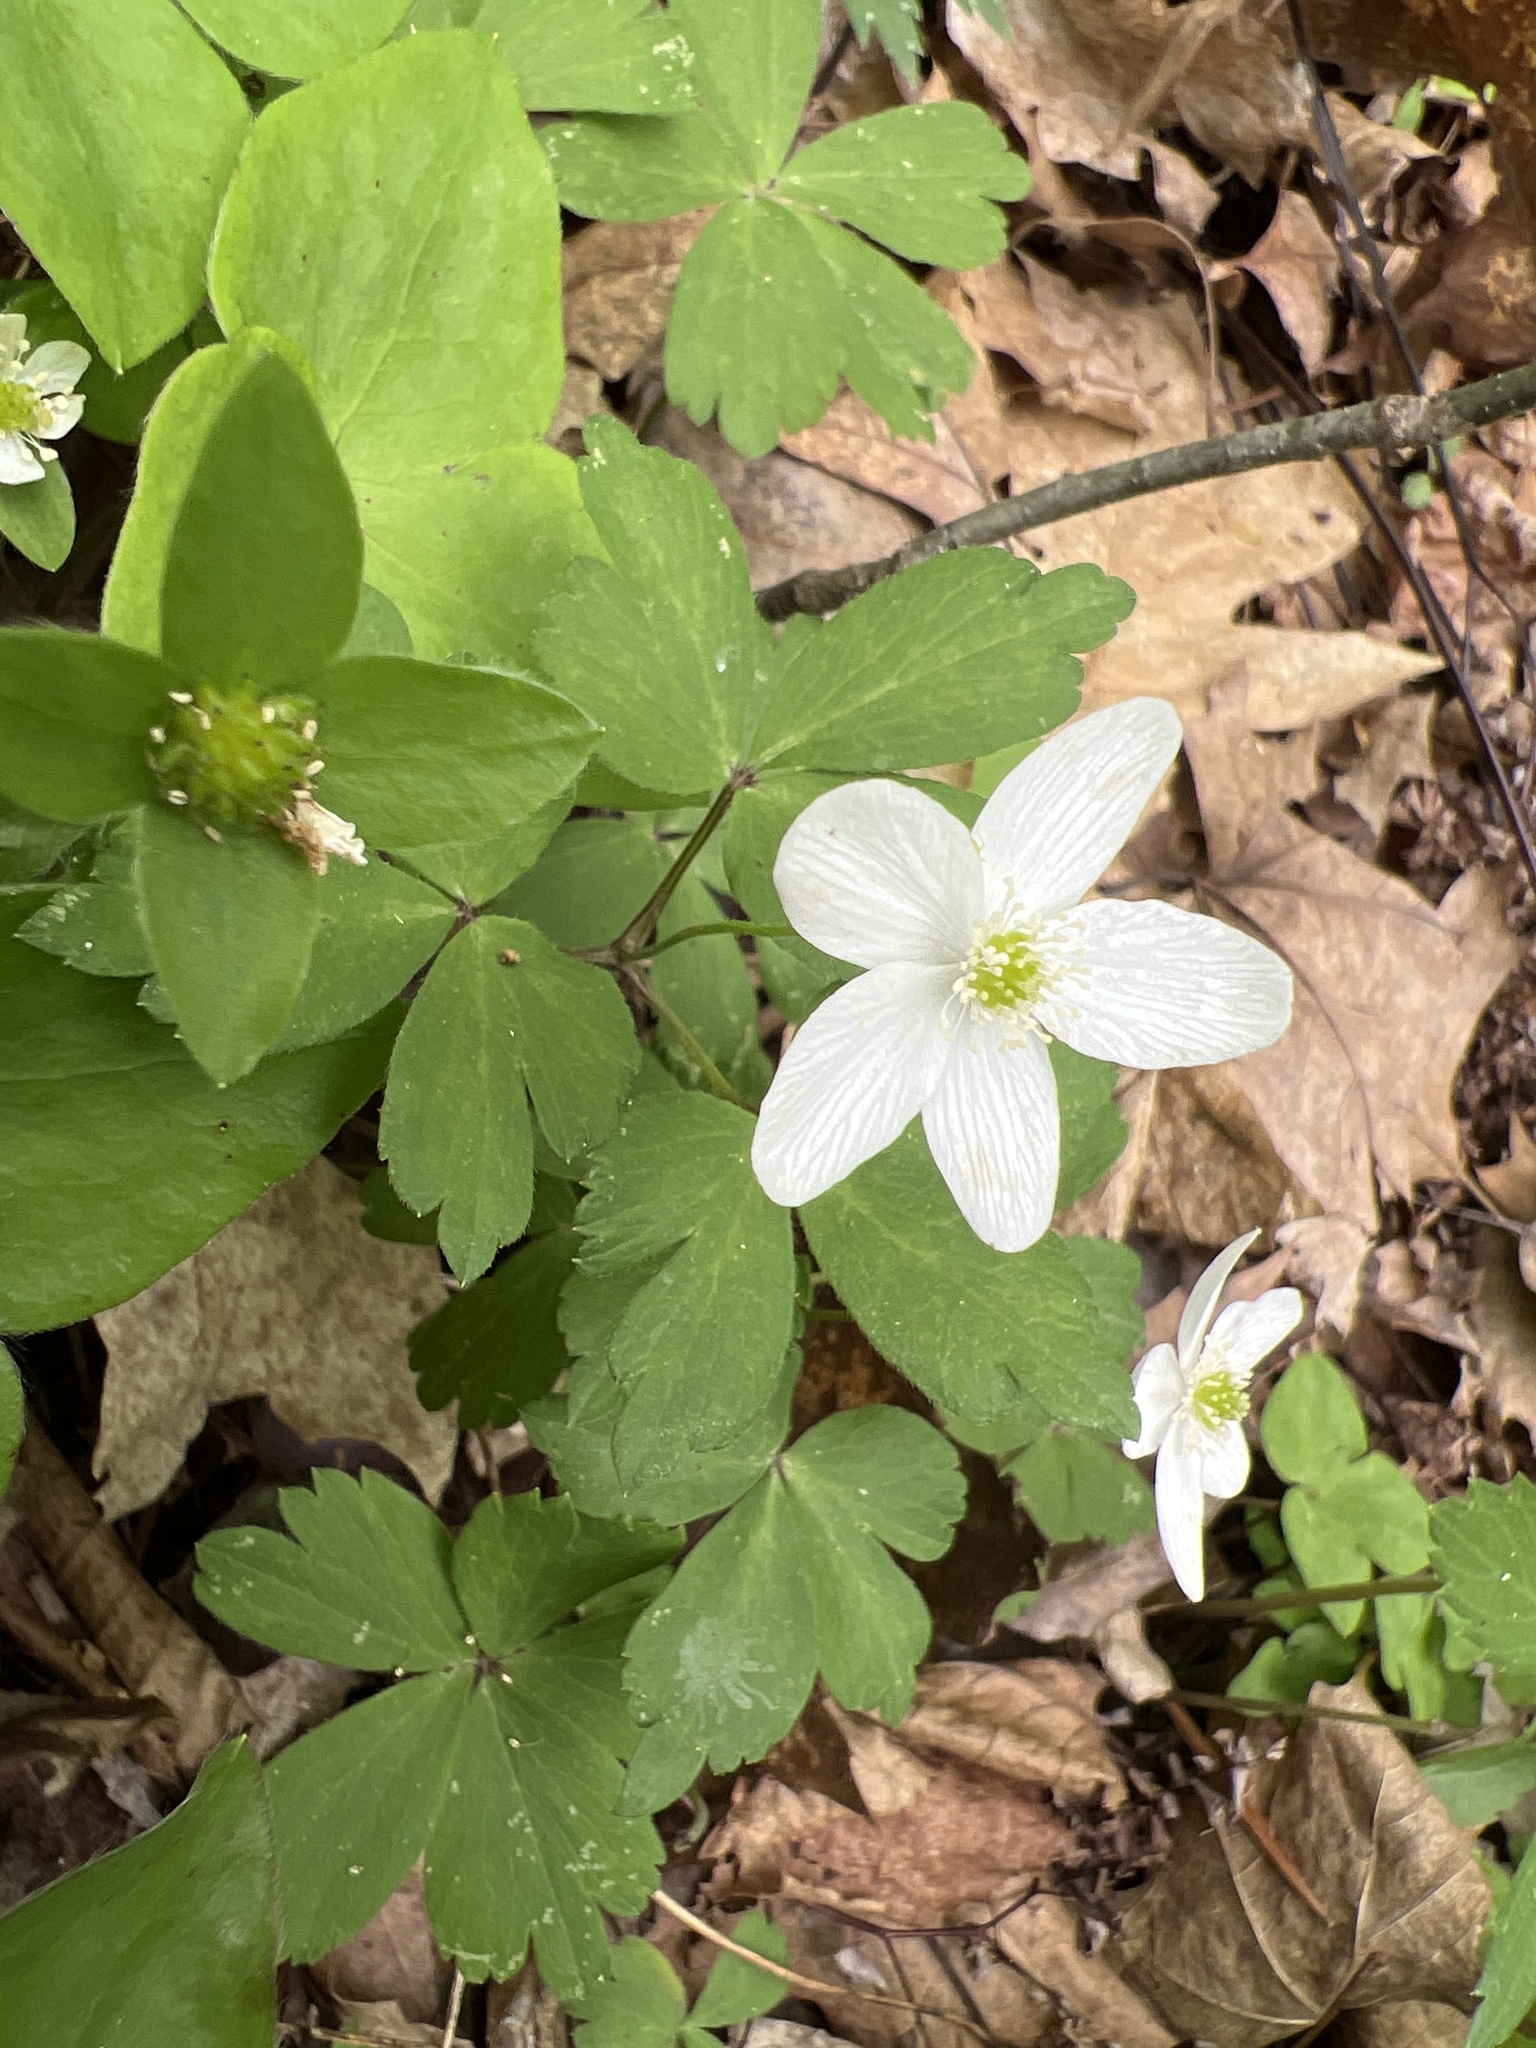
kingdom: Plantae
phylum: Tracheophyta
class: Magnoliopsida
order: Ranunculales
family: Ranunculaceae
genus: Anemone
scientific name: Anemone quinquefolia
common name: Wood anemone
